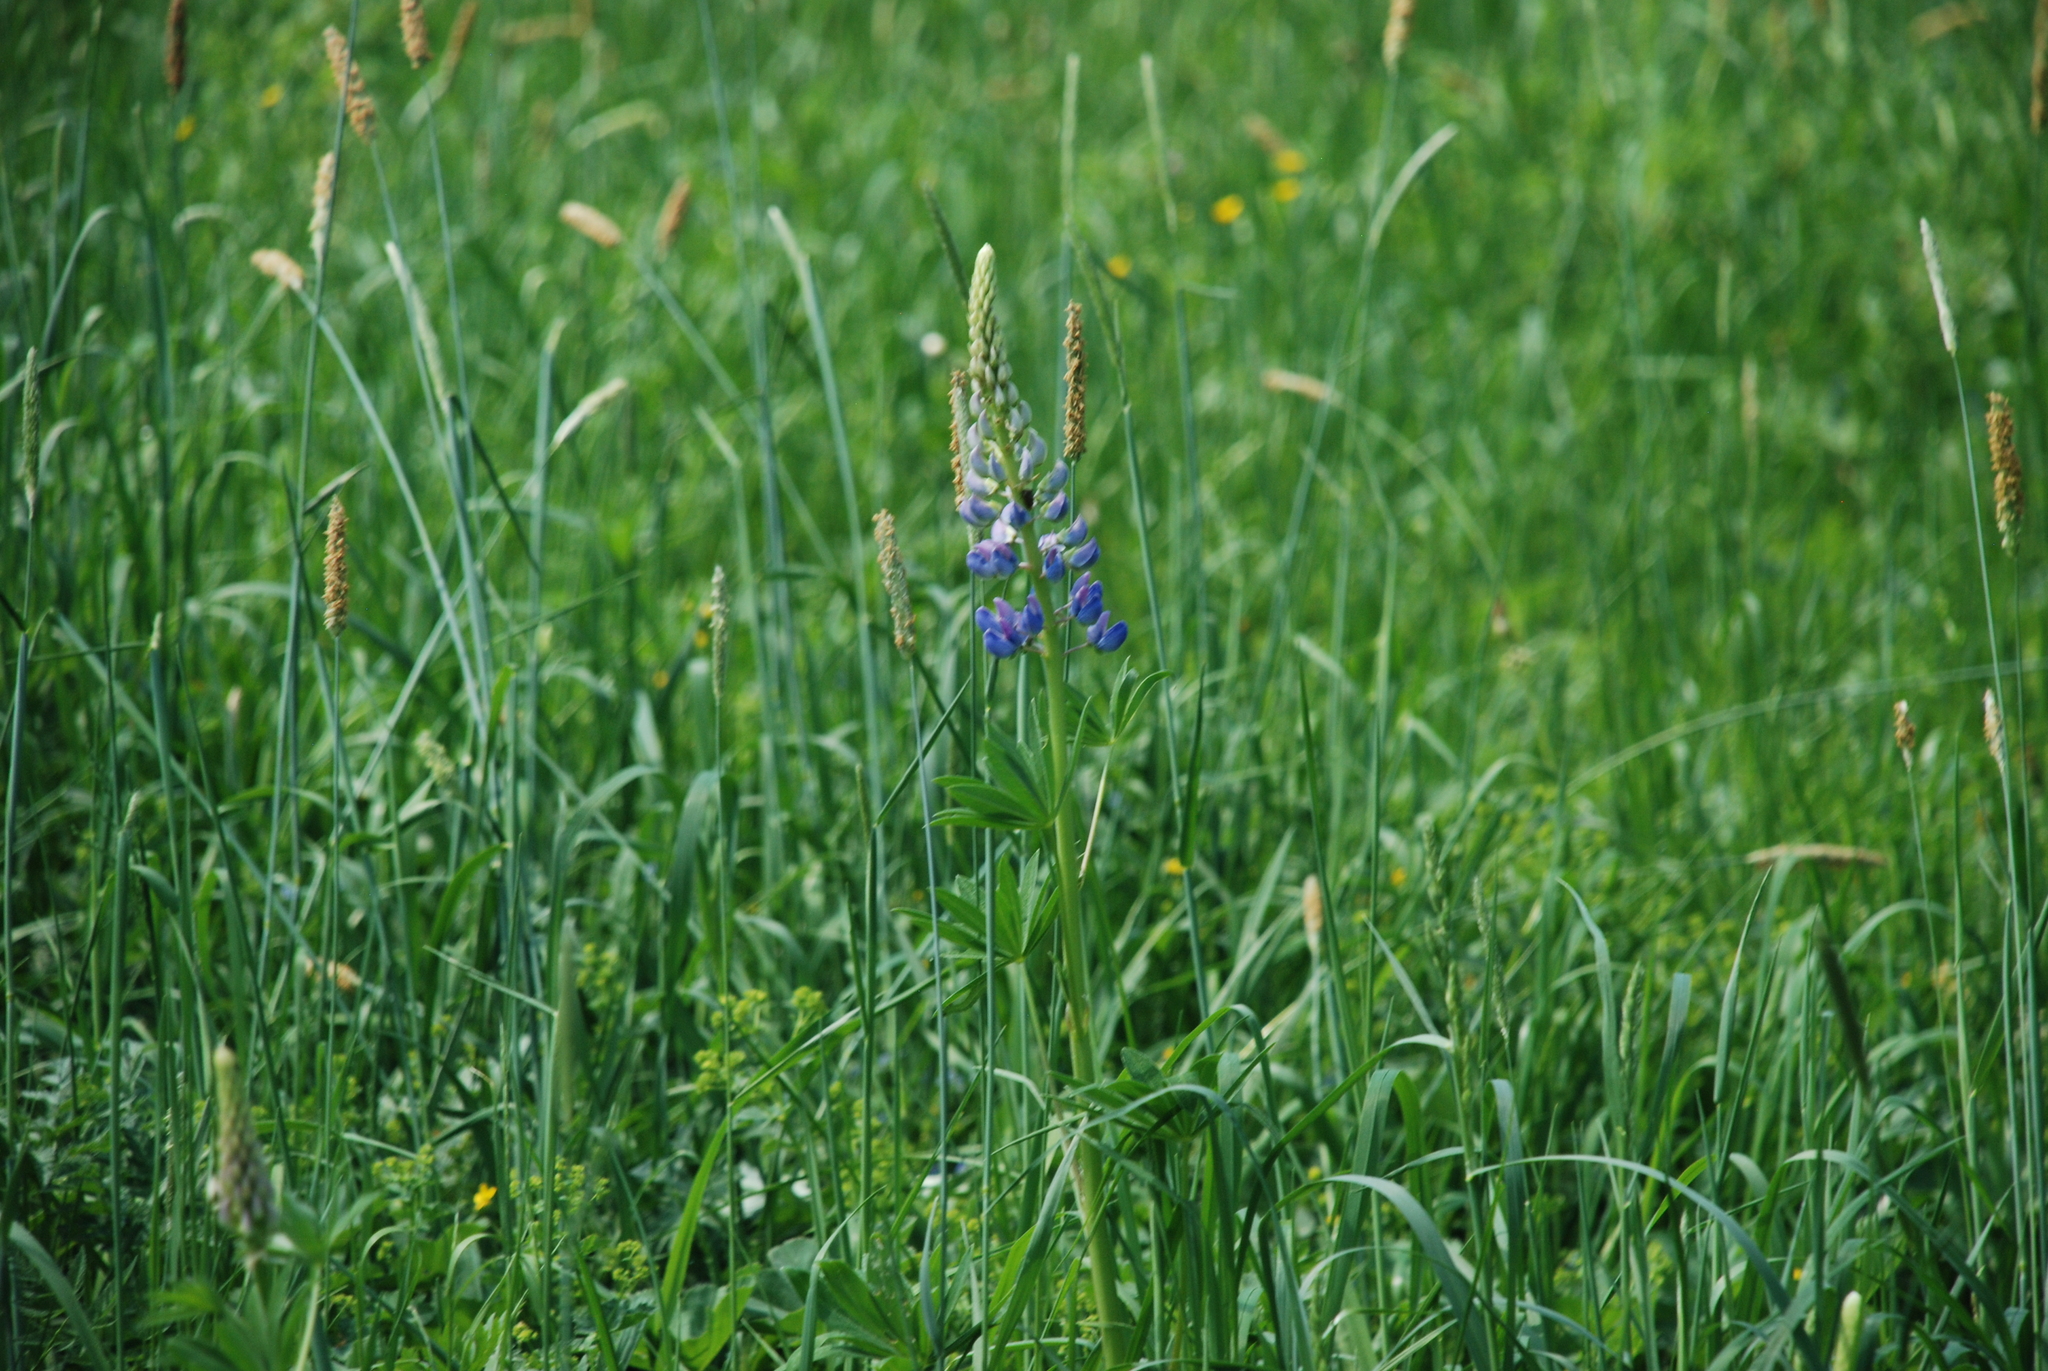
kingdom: Plantae
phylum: Tracheophyta
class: Magnoliopsida
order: Fabales
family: Fabaceae
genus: Lupinus
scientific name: Lupinus polyphyllus
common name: Garden lupin
